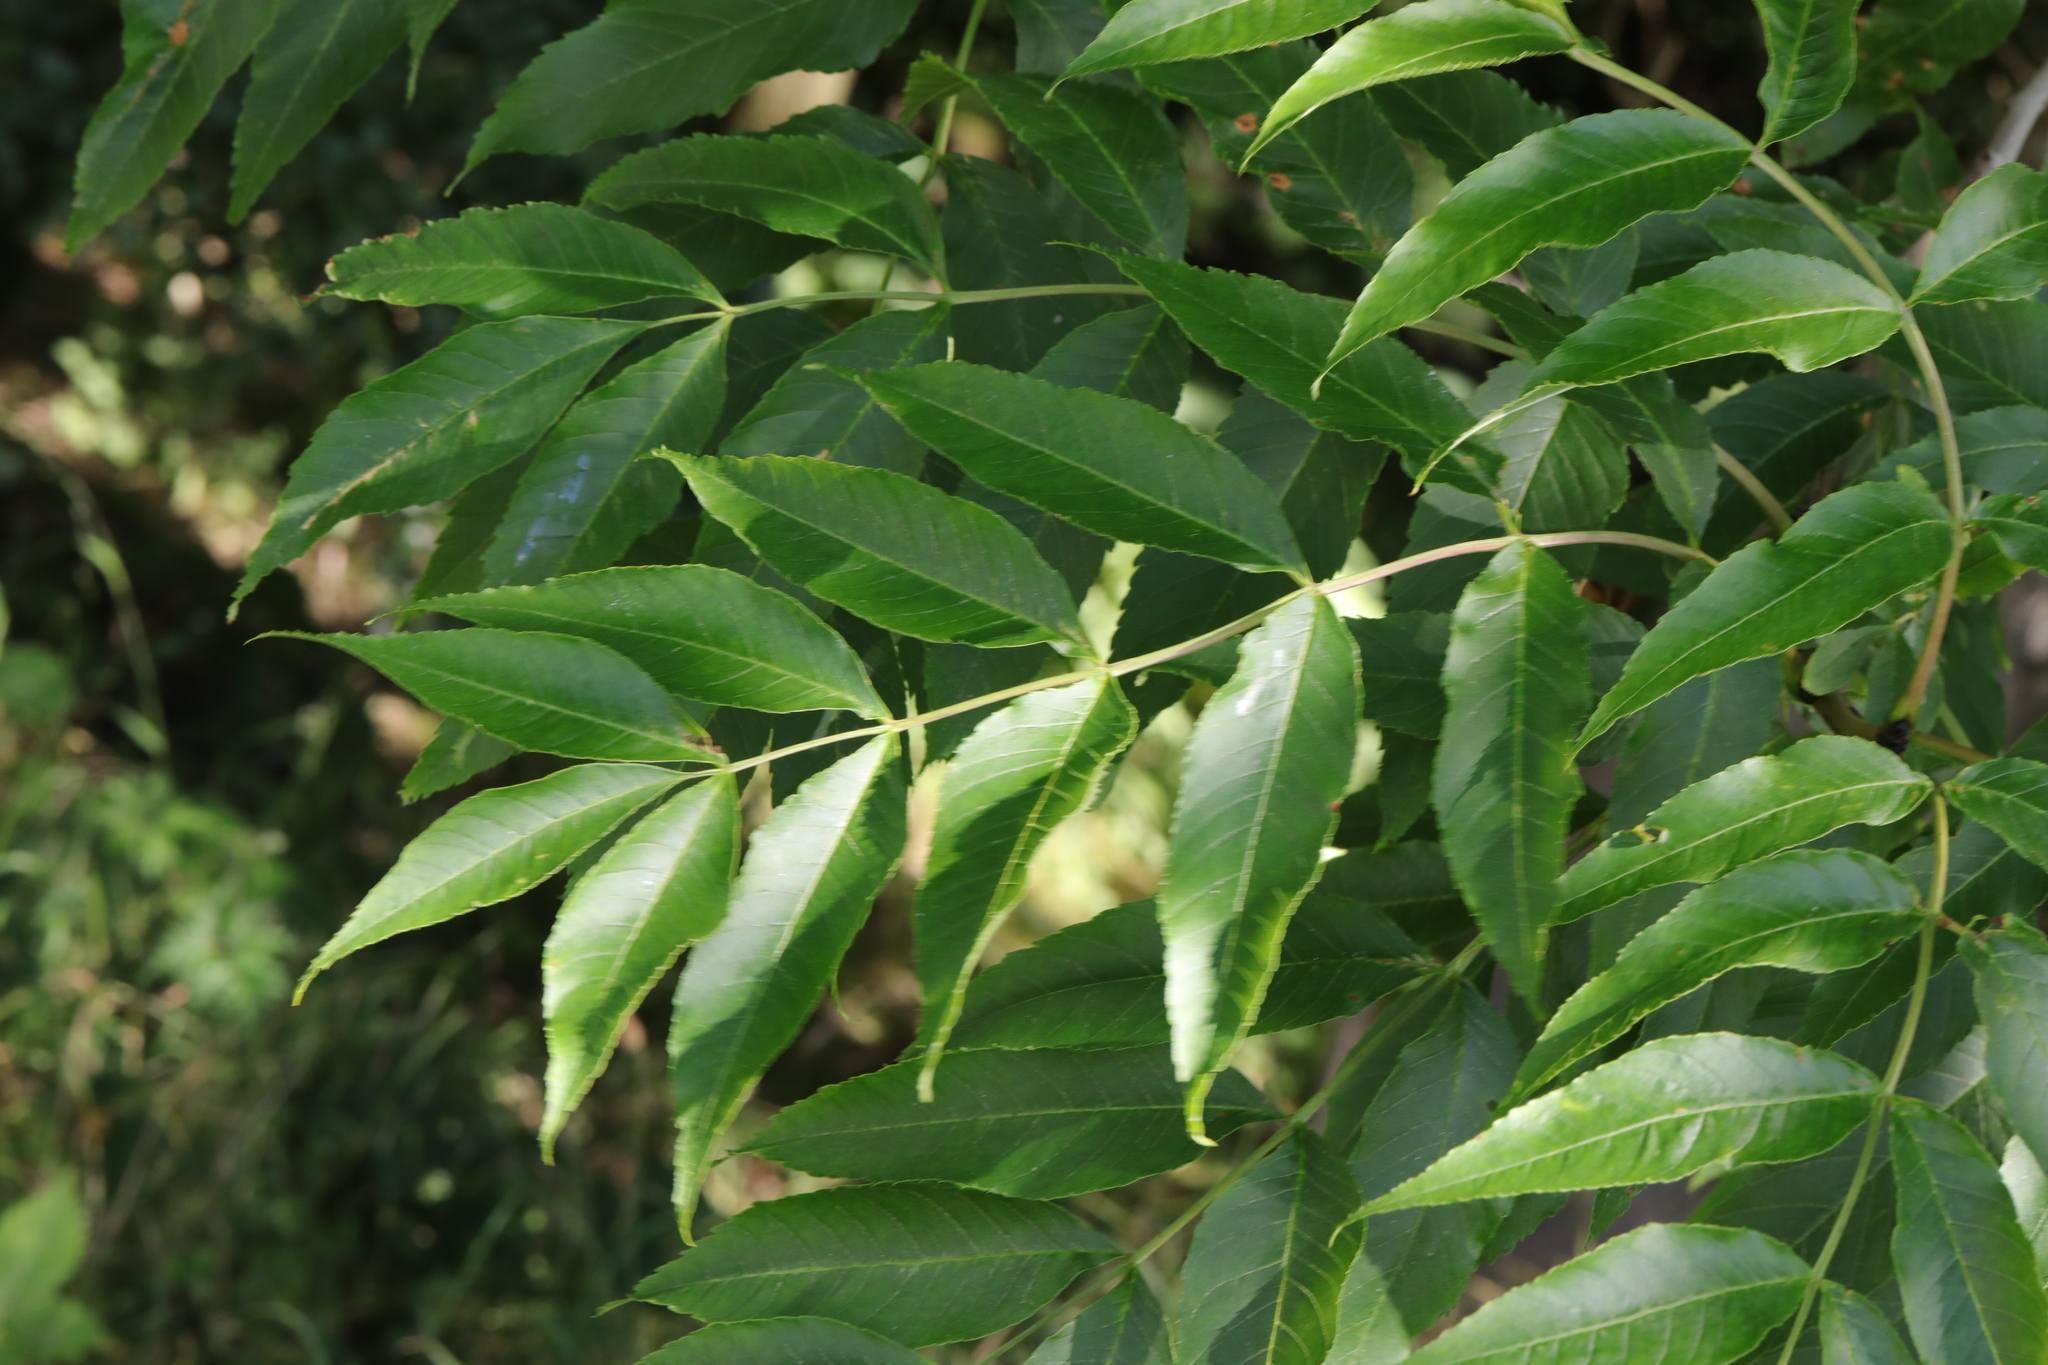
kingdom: Plantae
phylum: Tracheophyta
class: Magnoliopsida
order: Lamiales
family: Oleaceae
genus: Fraxinus
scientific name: Fraxinus excelsior
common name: European ash
